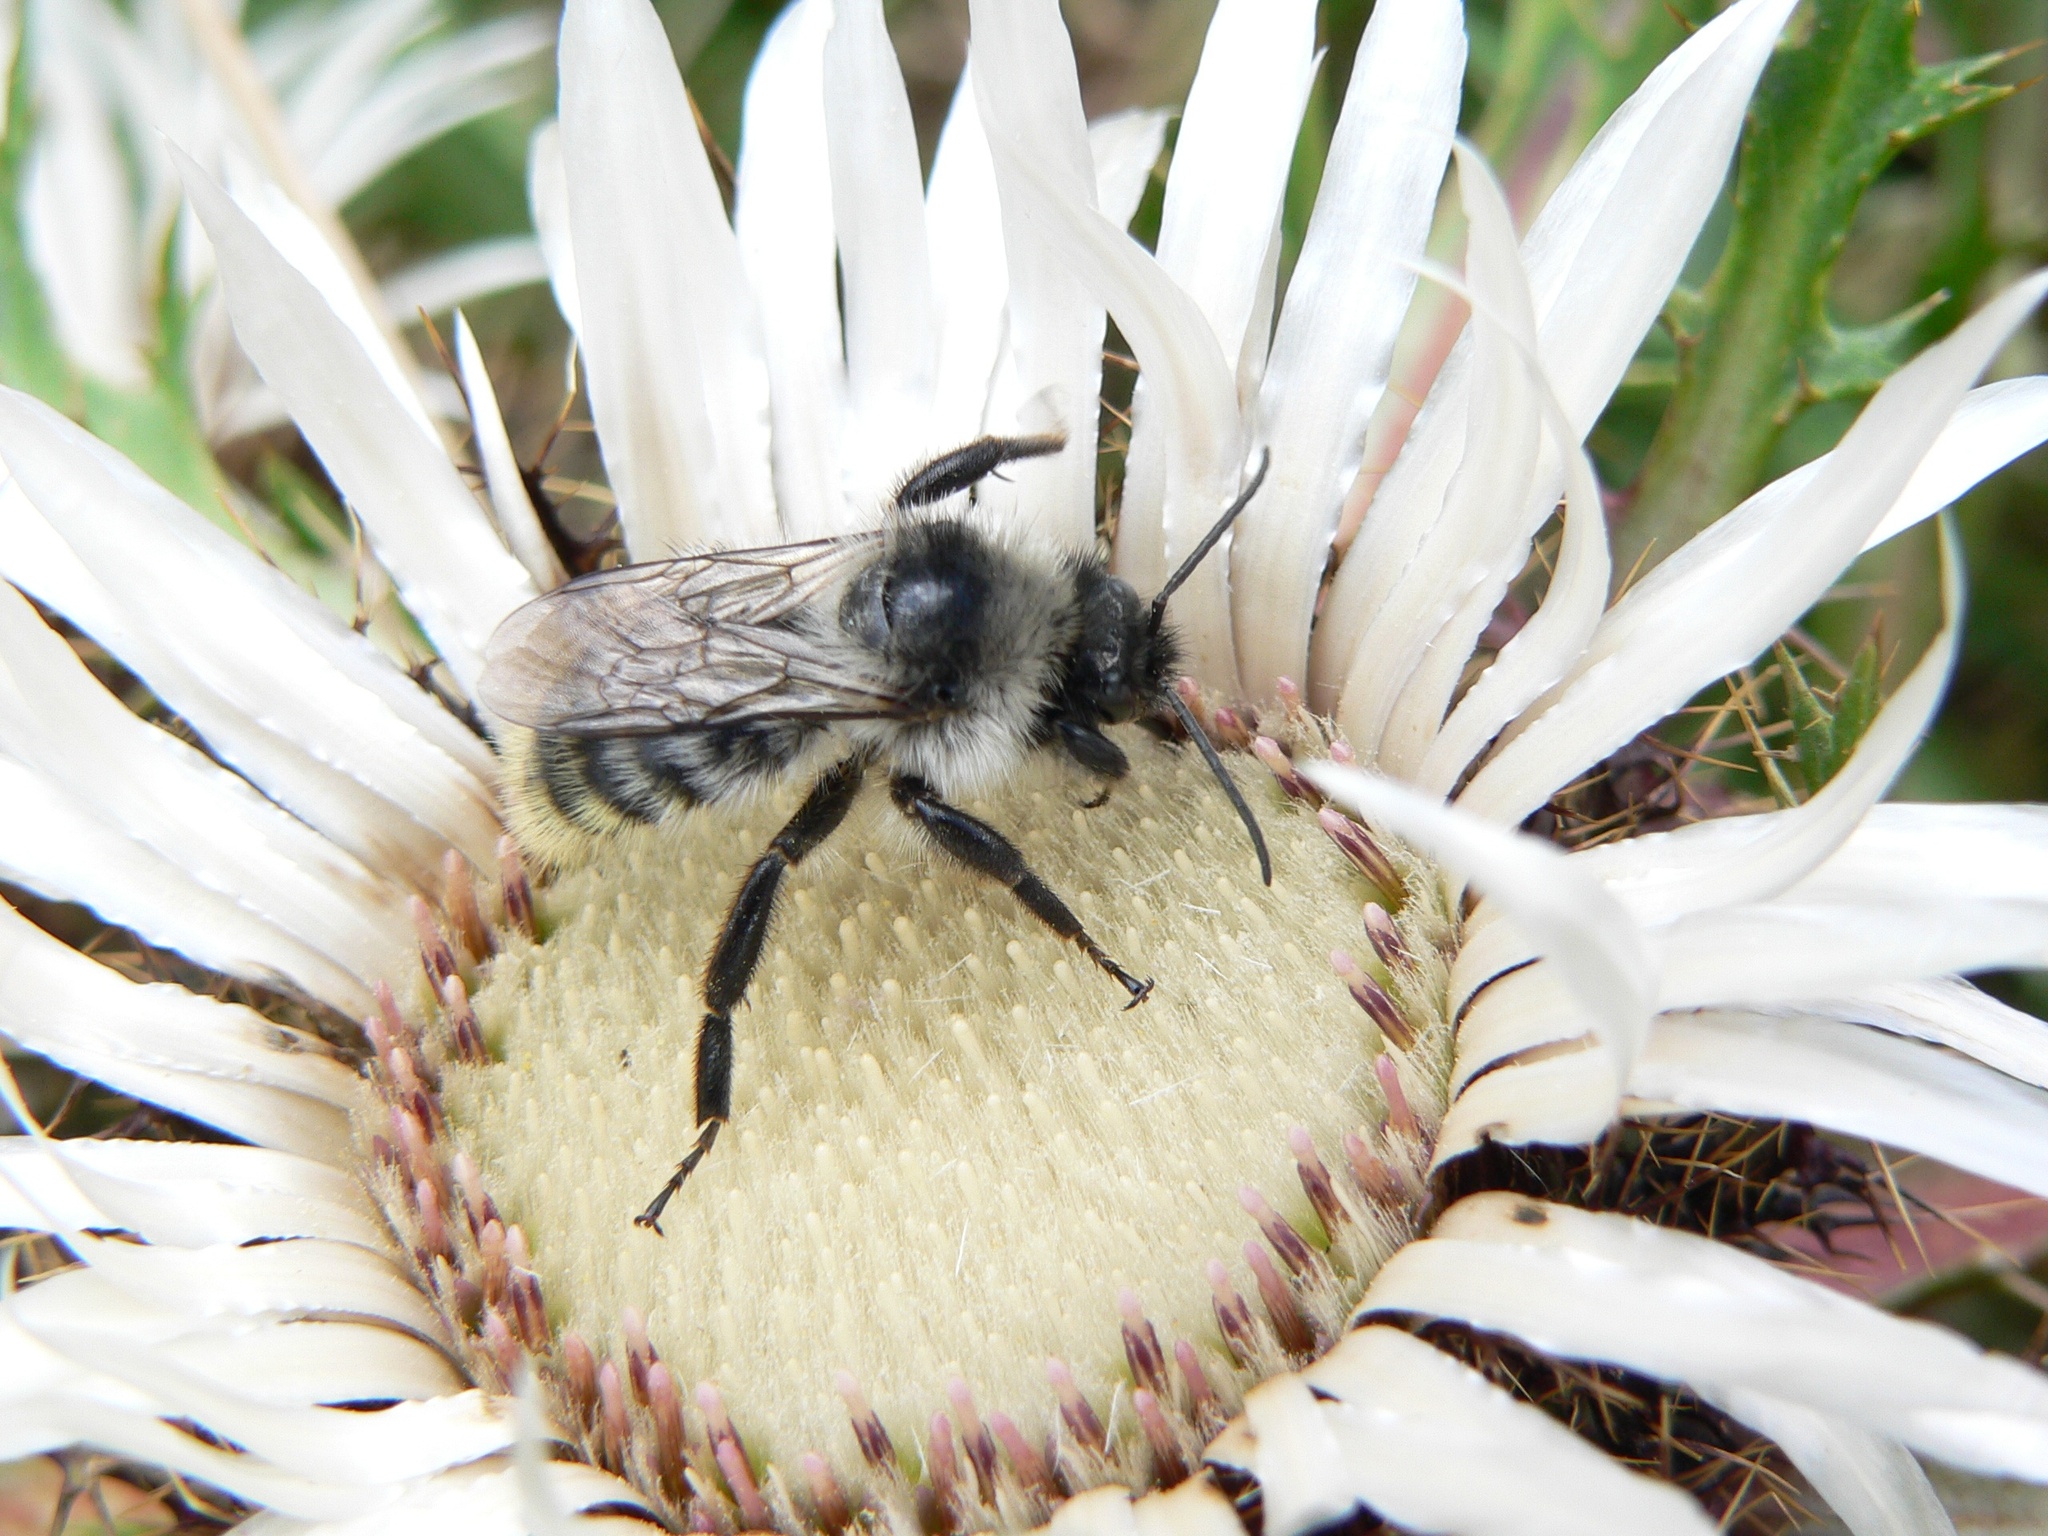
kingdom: Animalia
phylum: Arthropoda
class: Insecta
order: Hymenoptera
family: Apidae
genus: Bombus
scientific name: Bombus mesomelas
